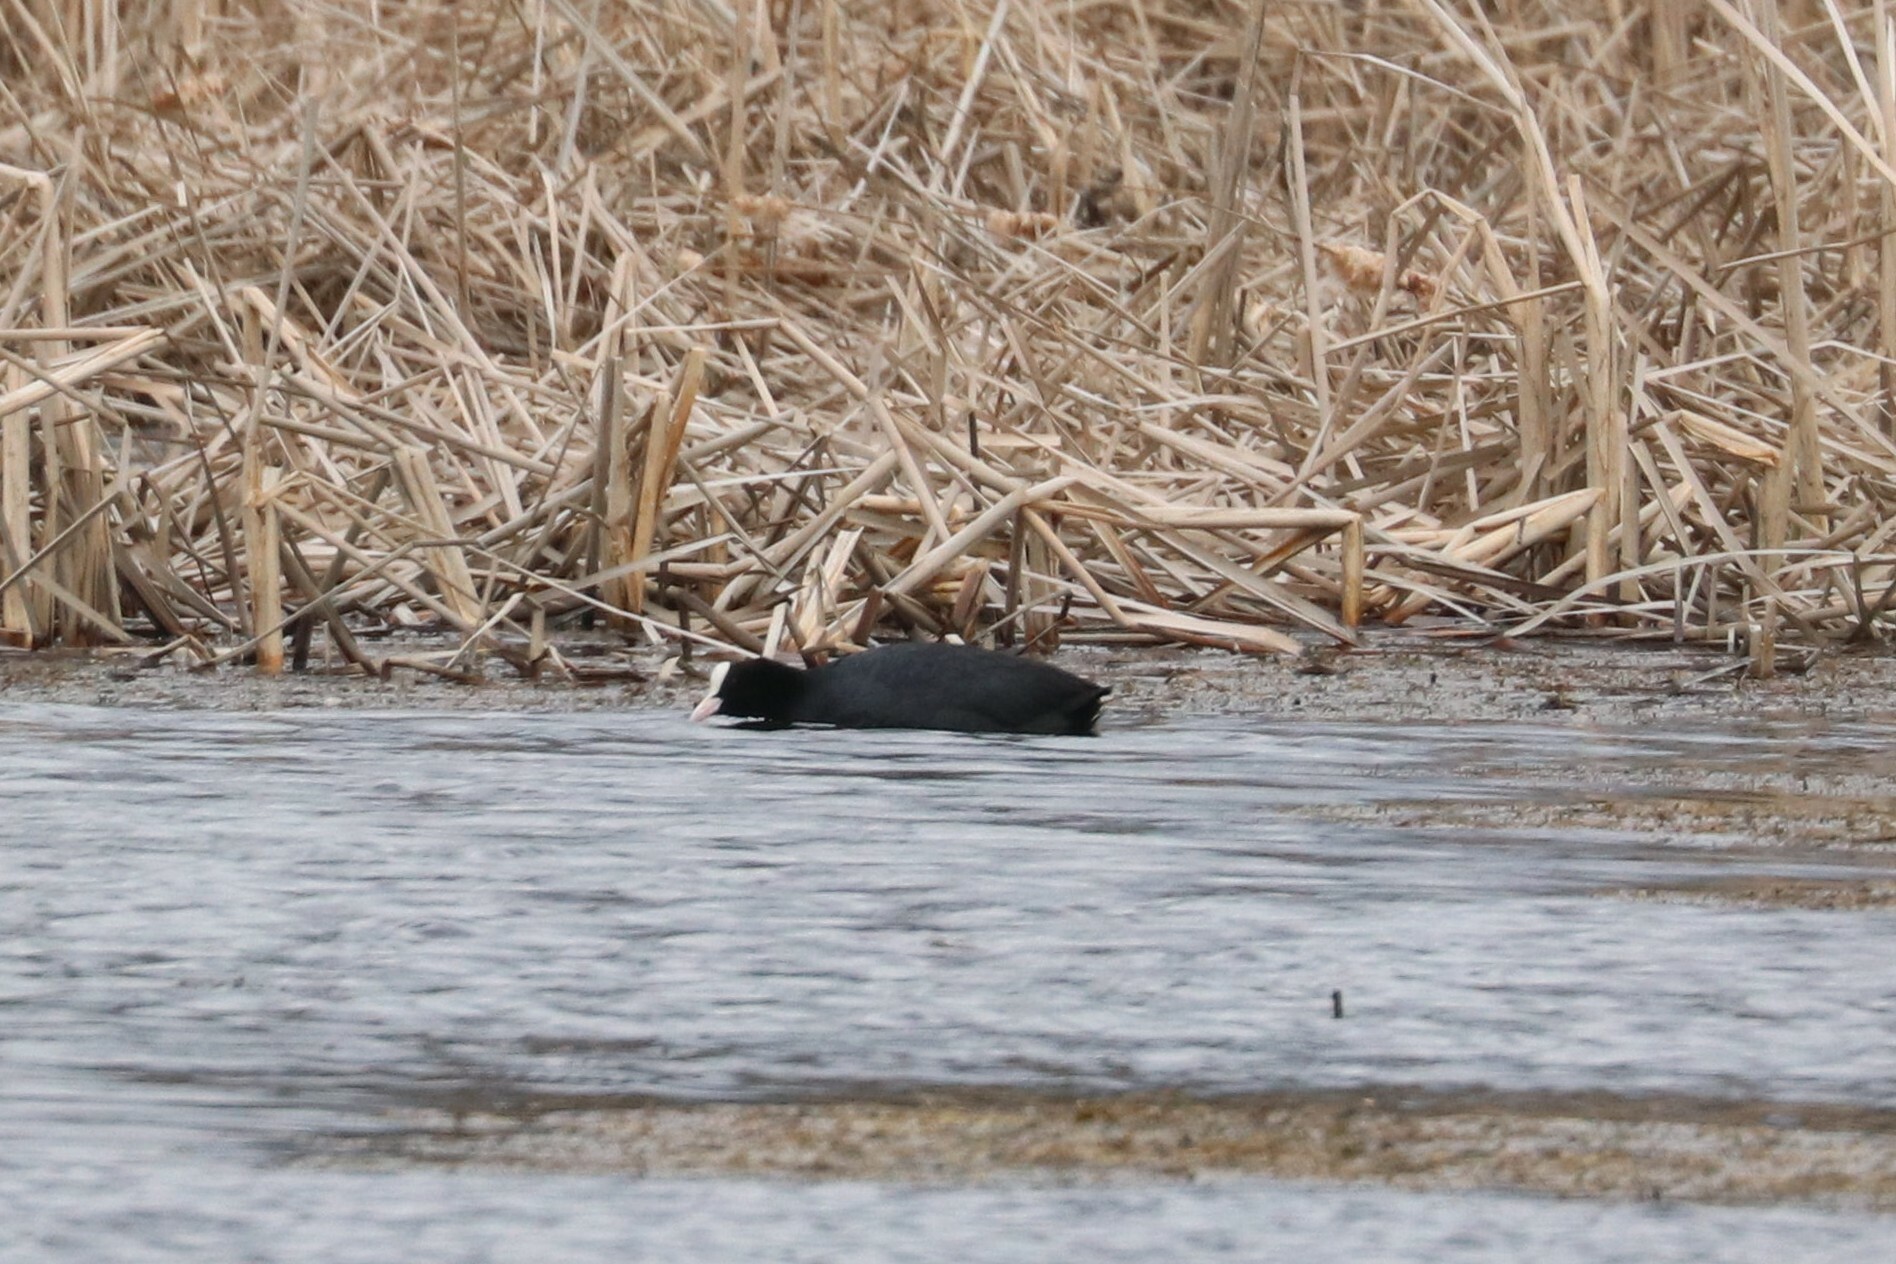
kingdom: Animalia
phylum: Chordata
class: Aves
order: Gruiformes
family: Rallidae
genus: Fulica
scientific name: Fulica atra
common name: Eurasian coot
